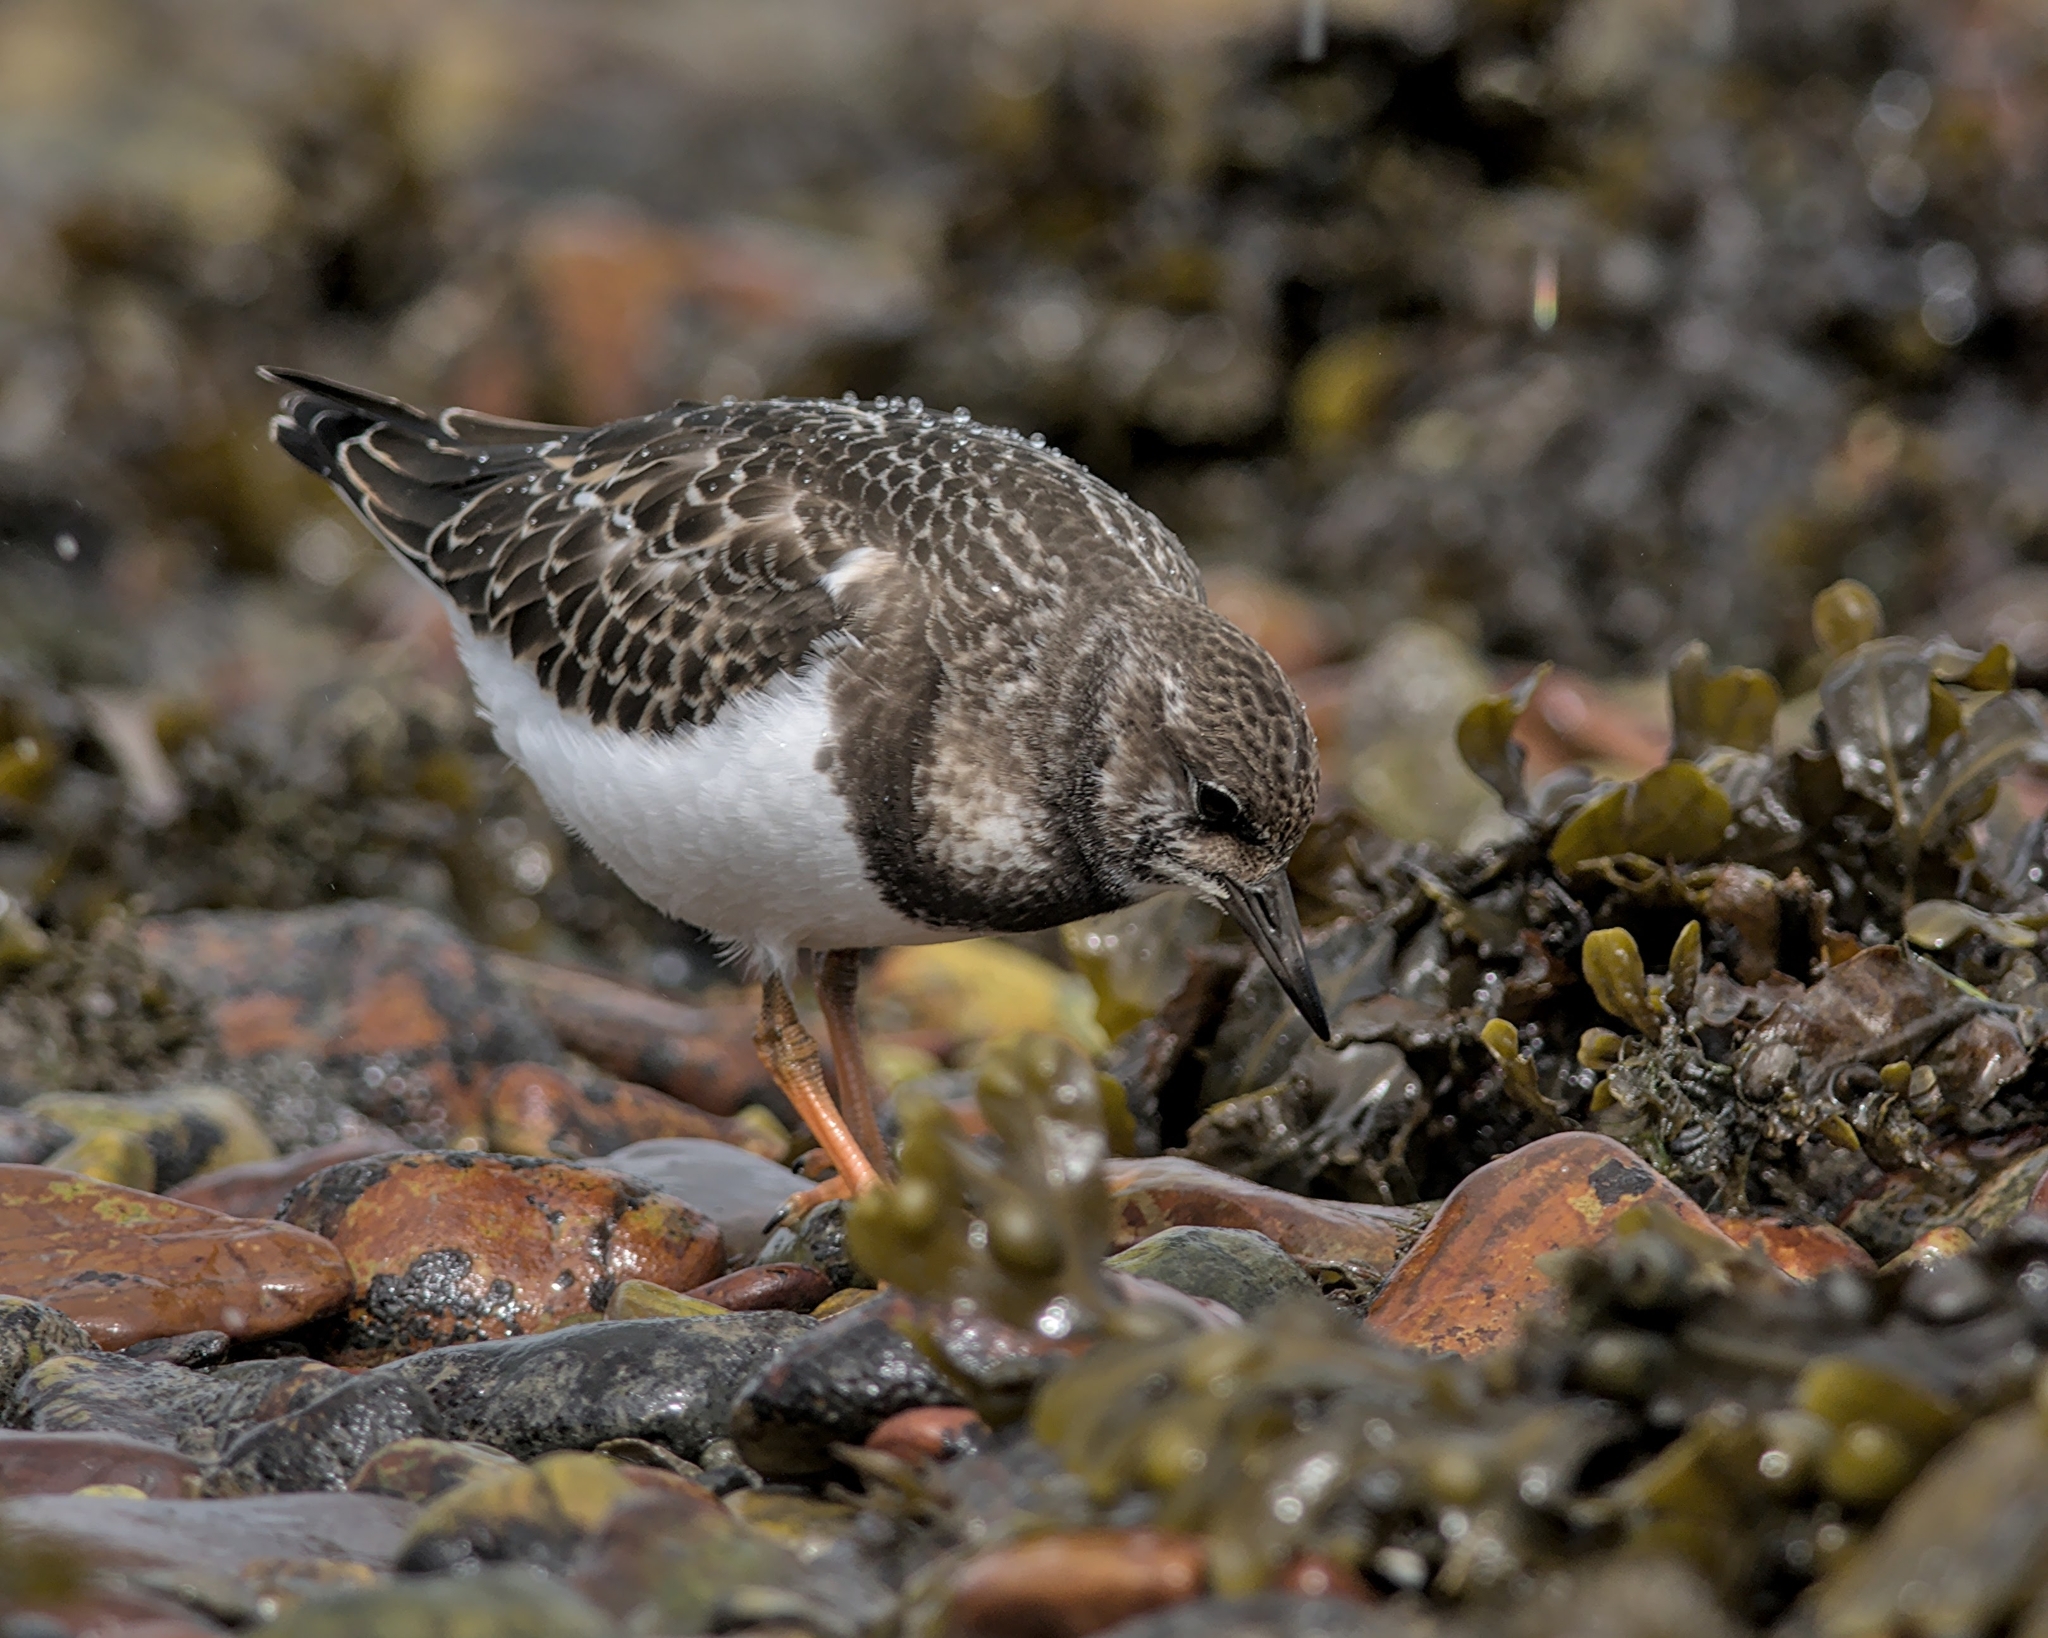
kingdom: Animalia
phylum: Chordata
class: Aves
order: Charadriiformes
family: Scolopacidae
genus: Arenaria
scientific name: Arenaria interpres
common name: Ruddy turnstone
